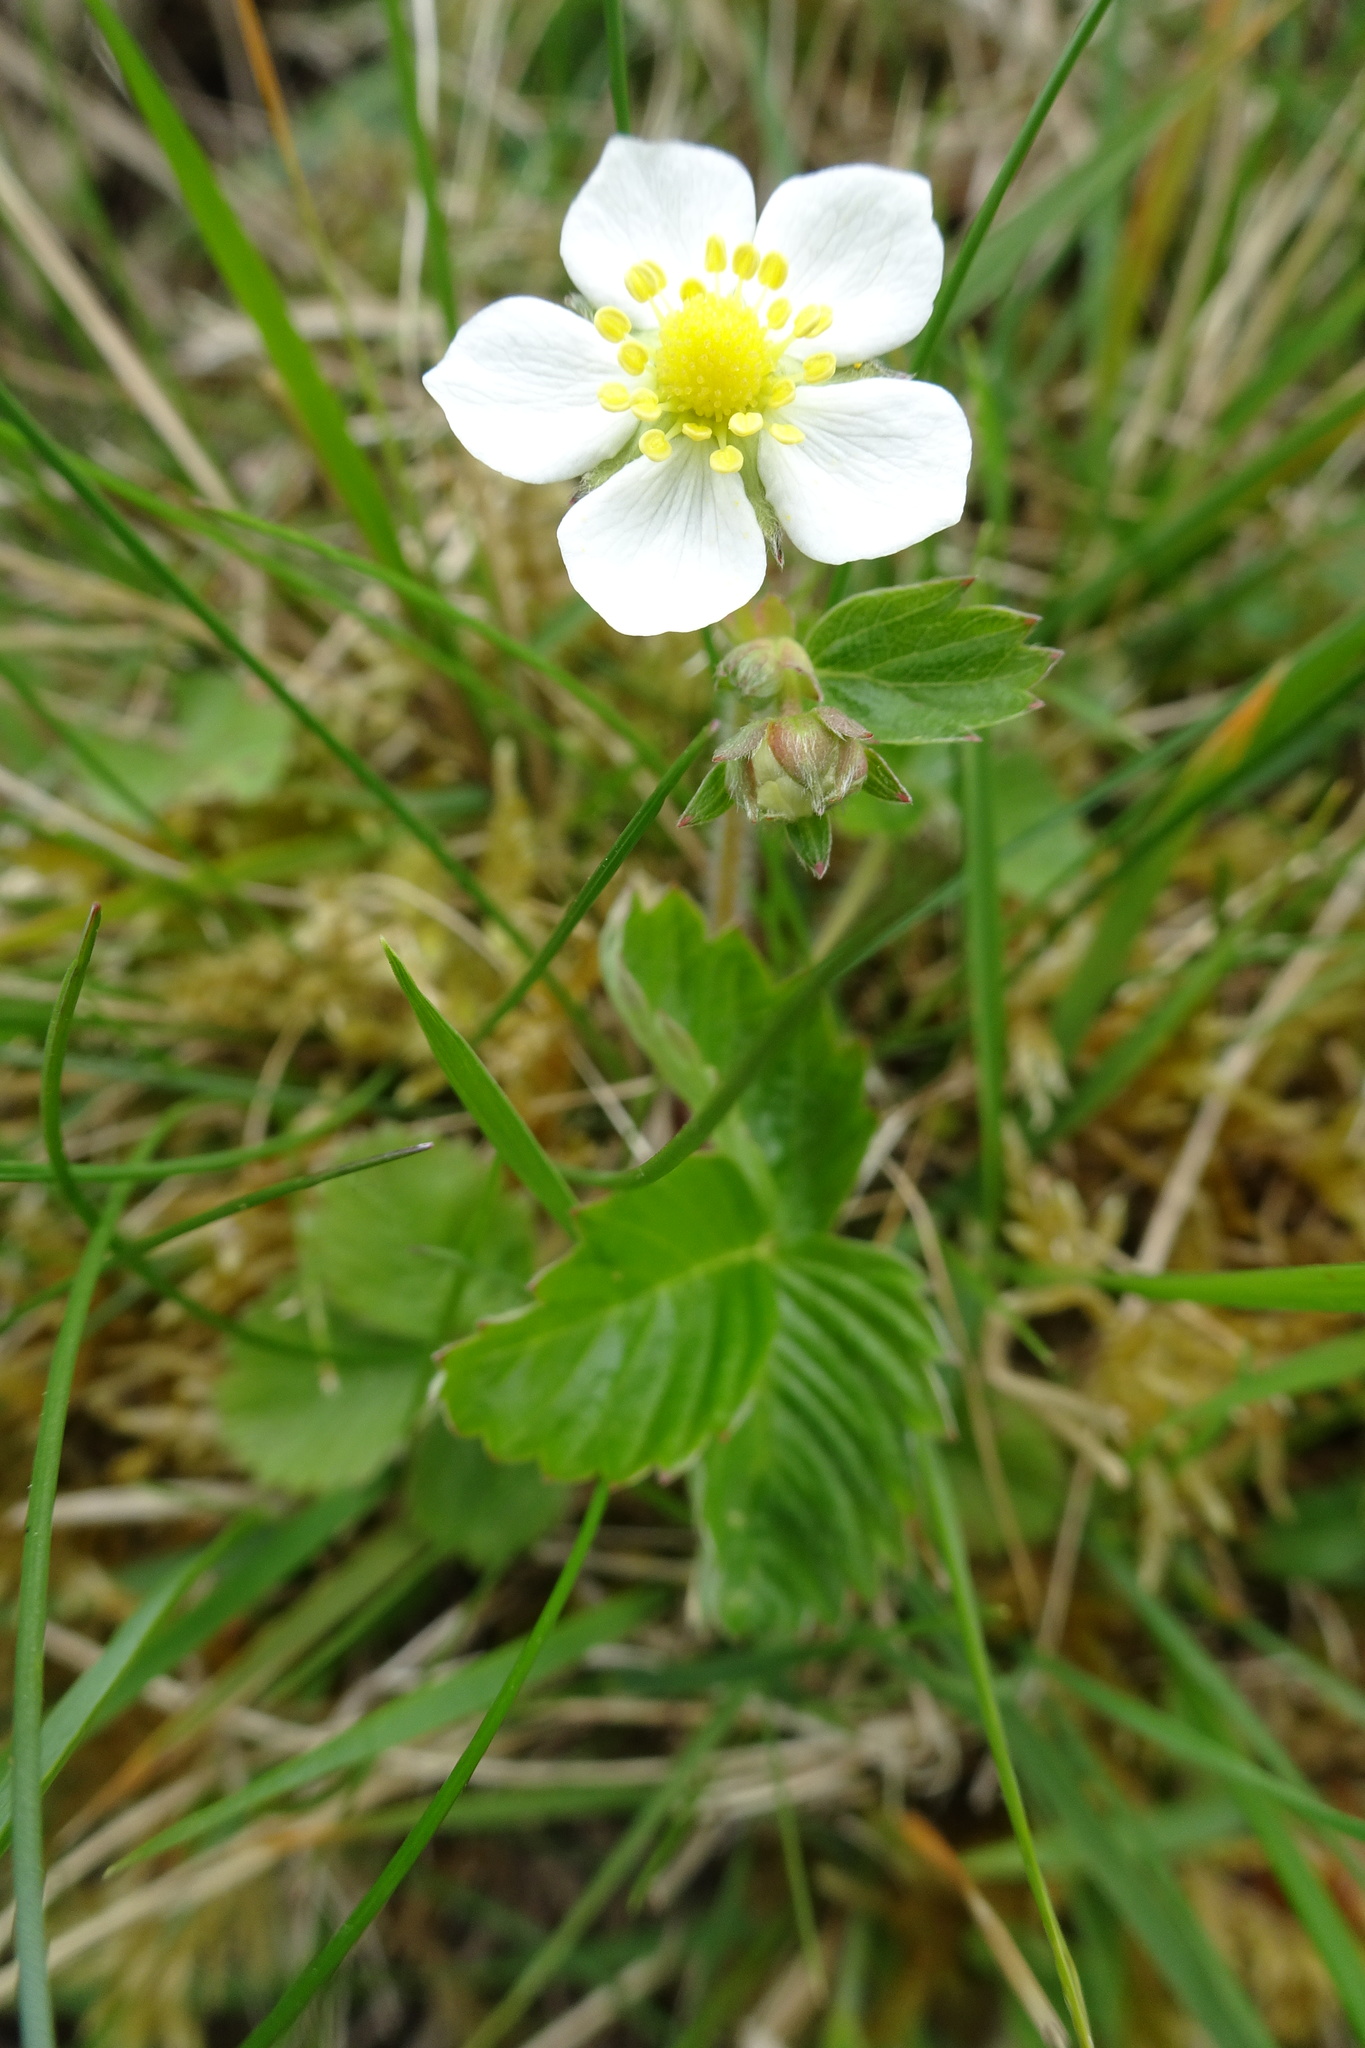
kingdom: Plantae
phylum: Tracheophyta
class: Magnoliopsida
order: Rosales
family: Rosaceae
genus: Fragaria
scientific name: Fragaria vesca
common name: Wild strawberry
